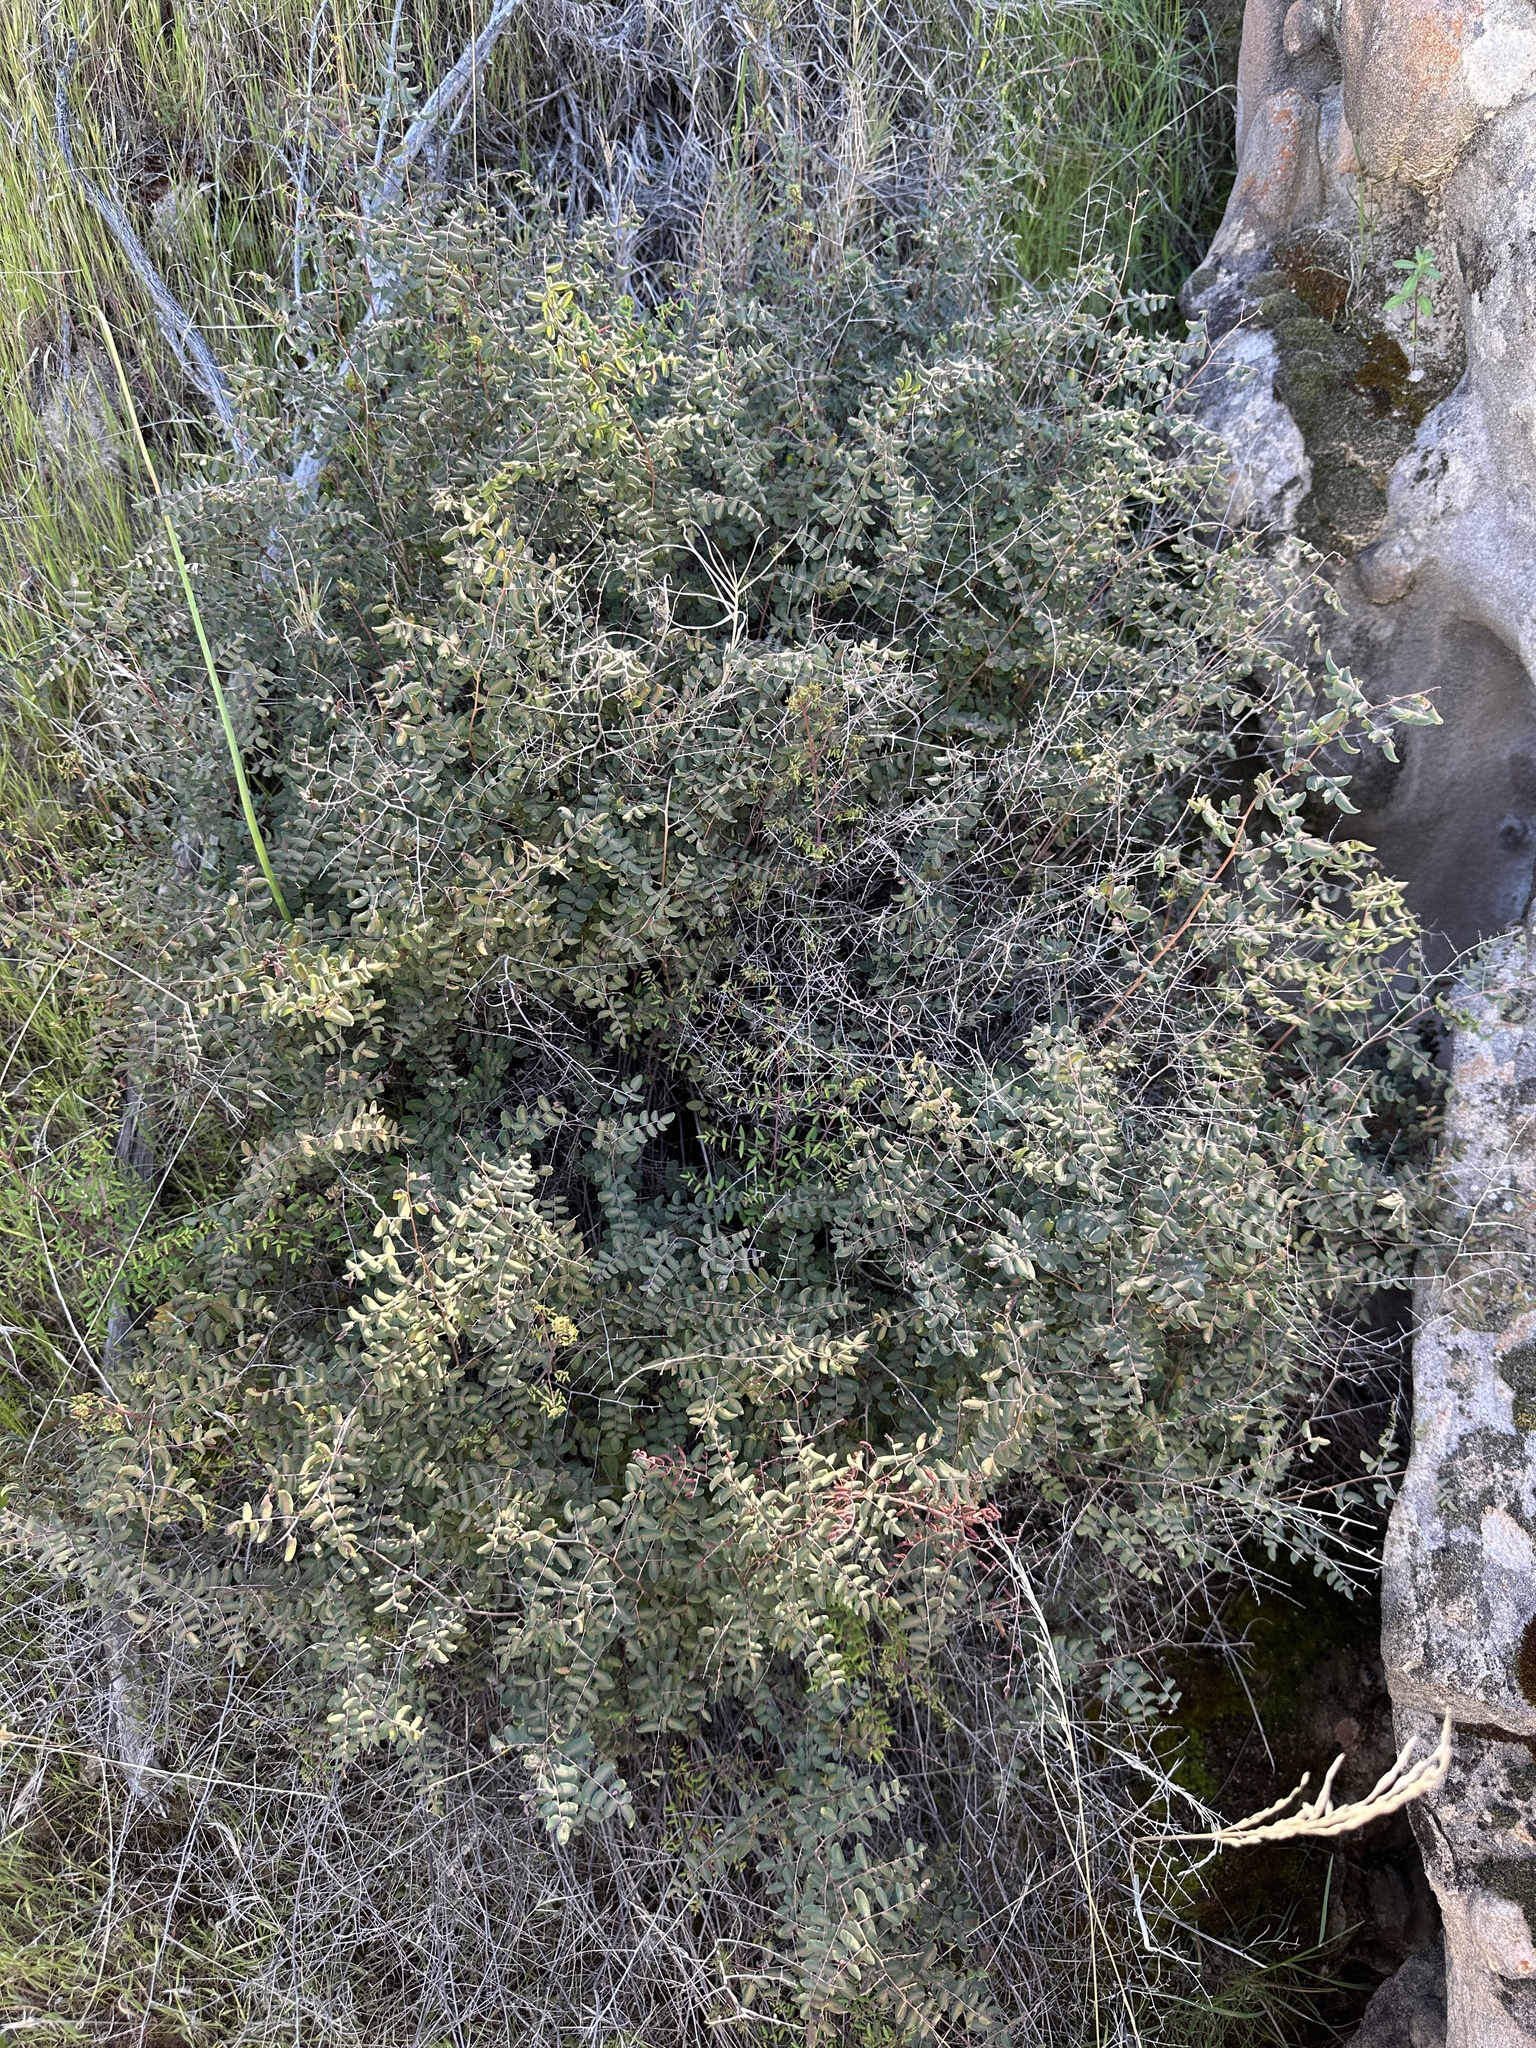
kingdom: Plantae
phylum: Tracheophyta
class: Polypodiopsida
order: Polypodiales
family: Pteridaceae
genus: Pellaea
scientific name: Pellaea andromedifolia
